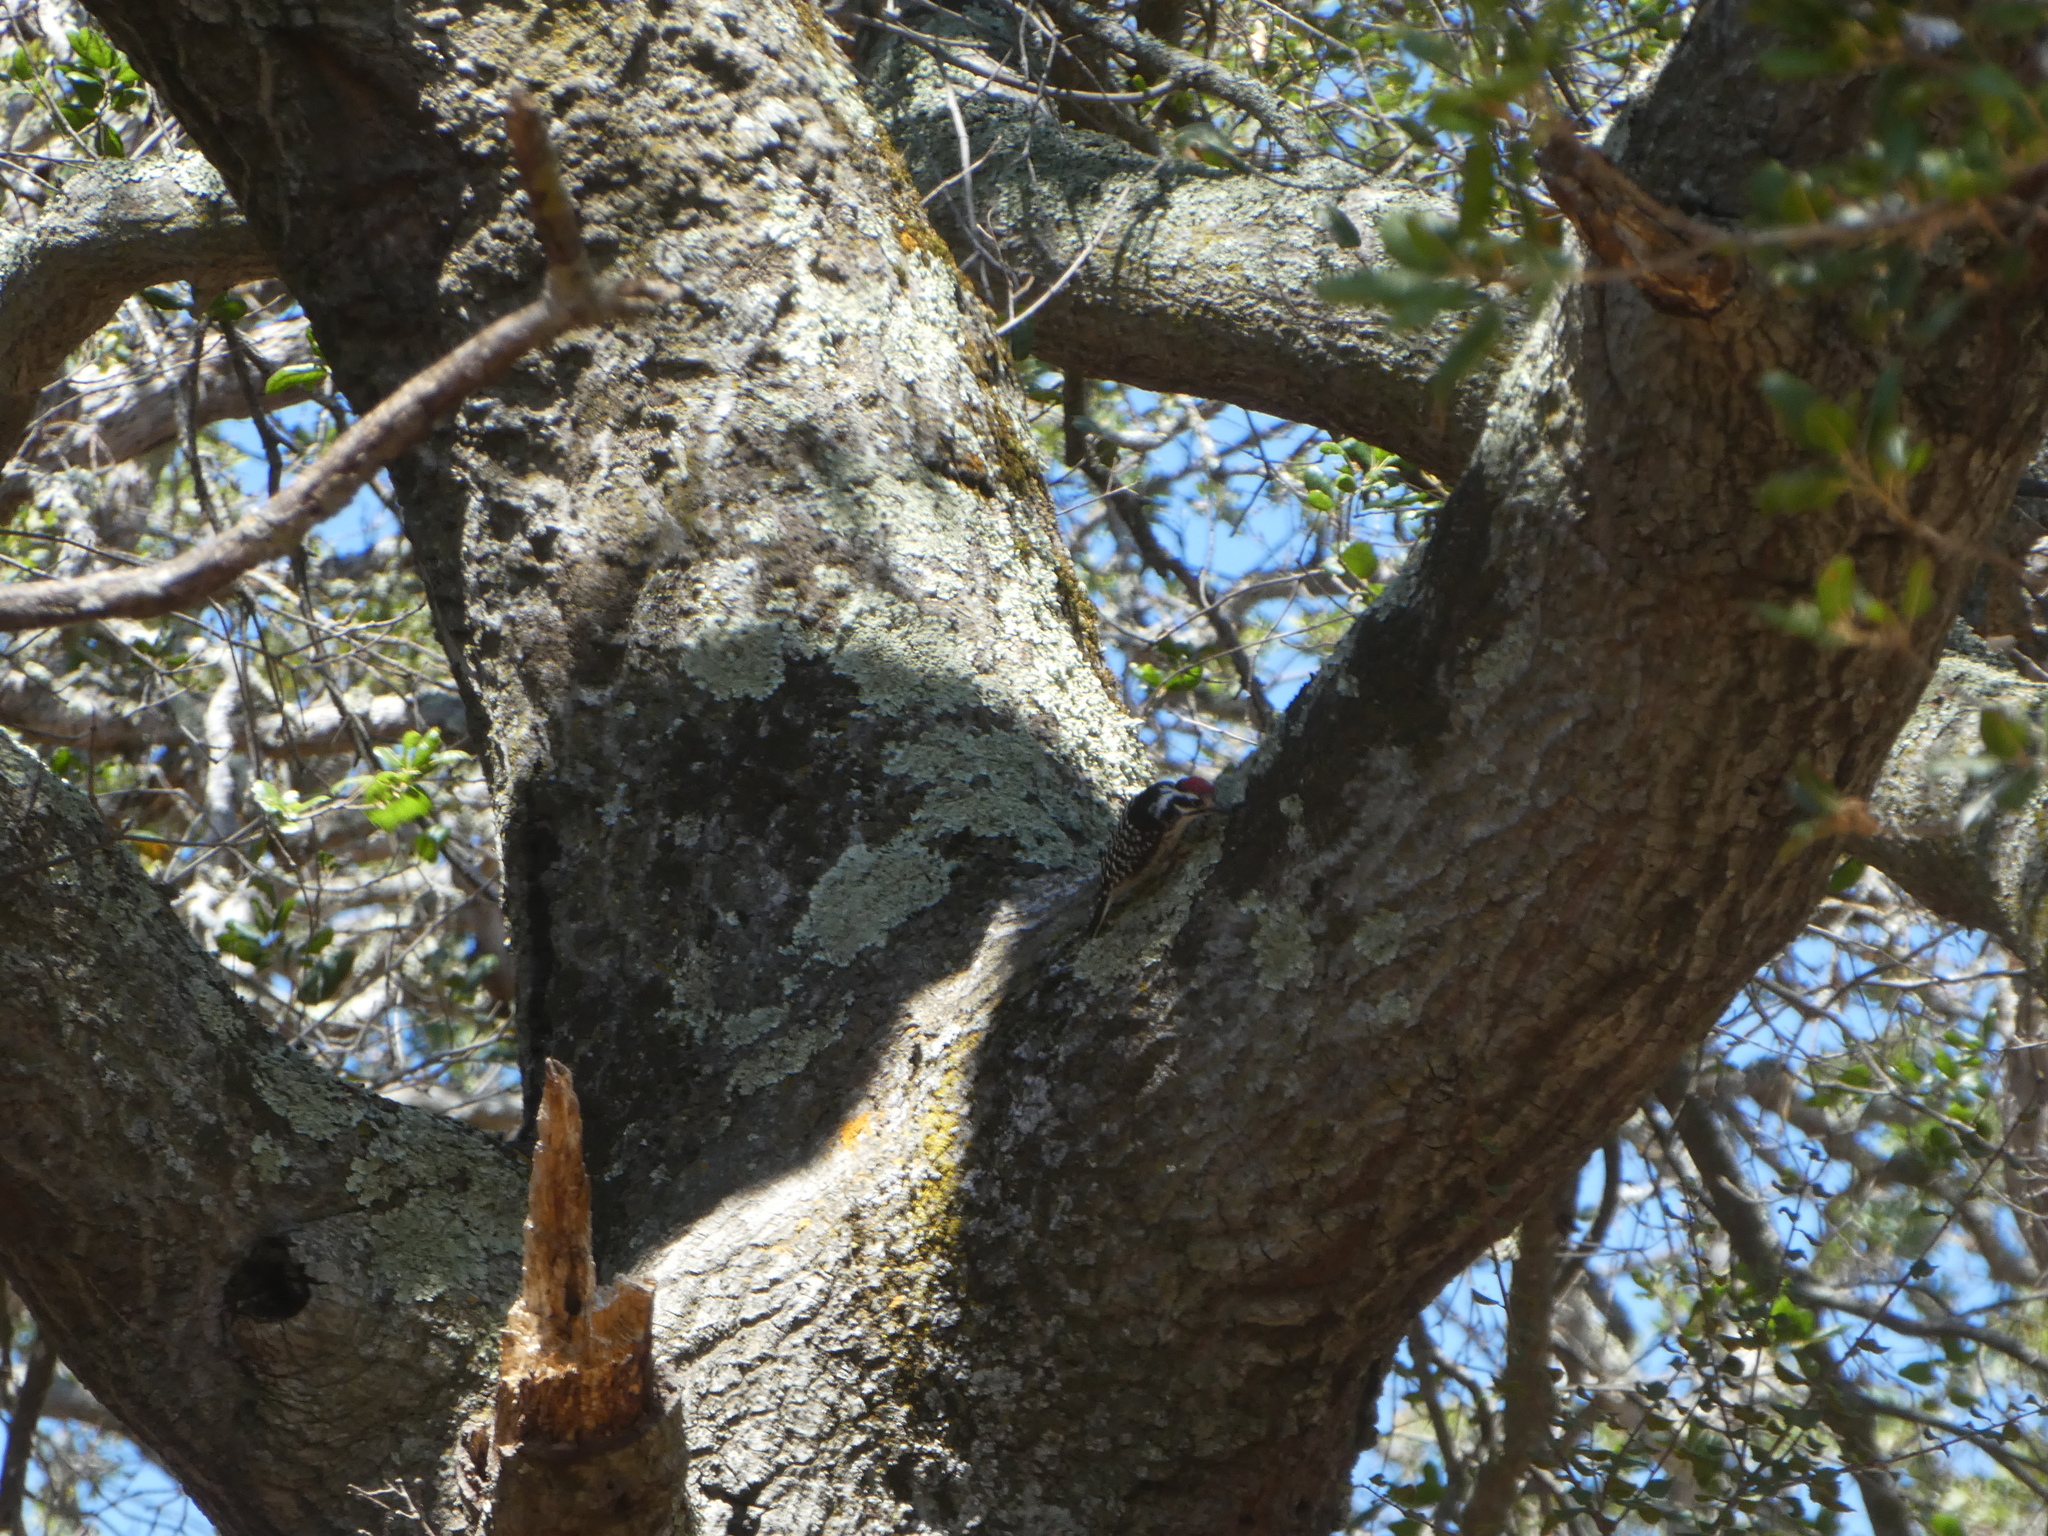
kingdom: Animalia
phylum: Chordata
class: Aves
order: Piciformes
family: Picidae
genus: Dryobates
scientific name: Dryobates nuttallii
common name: Nuttall's woodpecker
